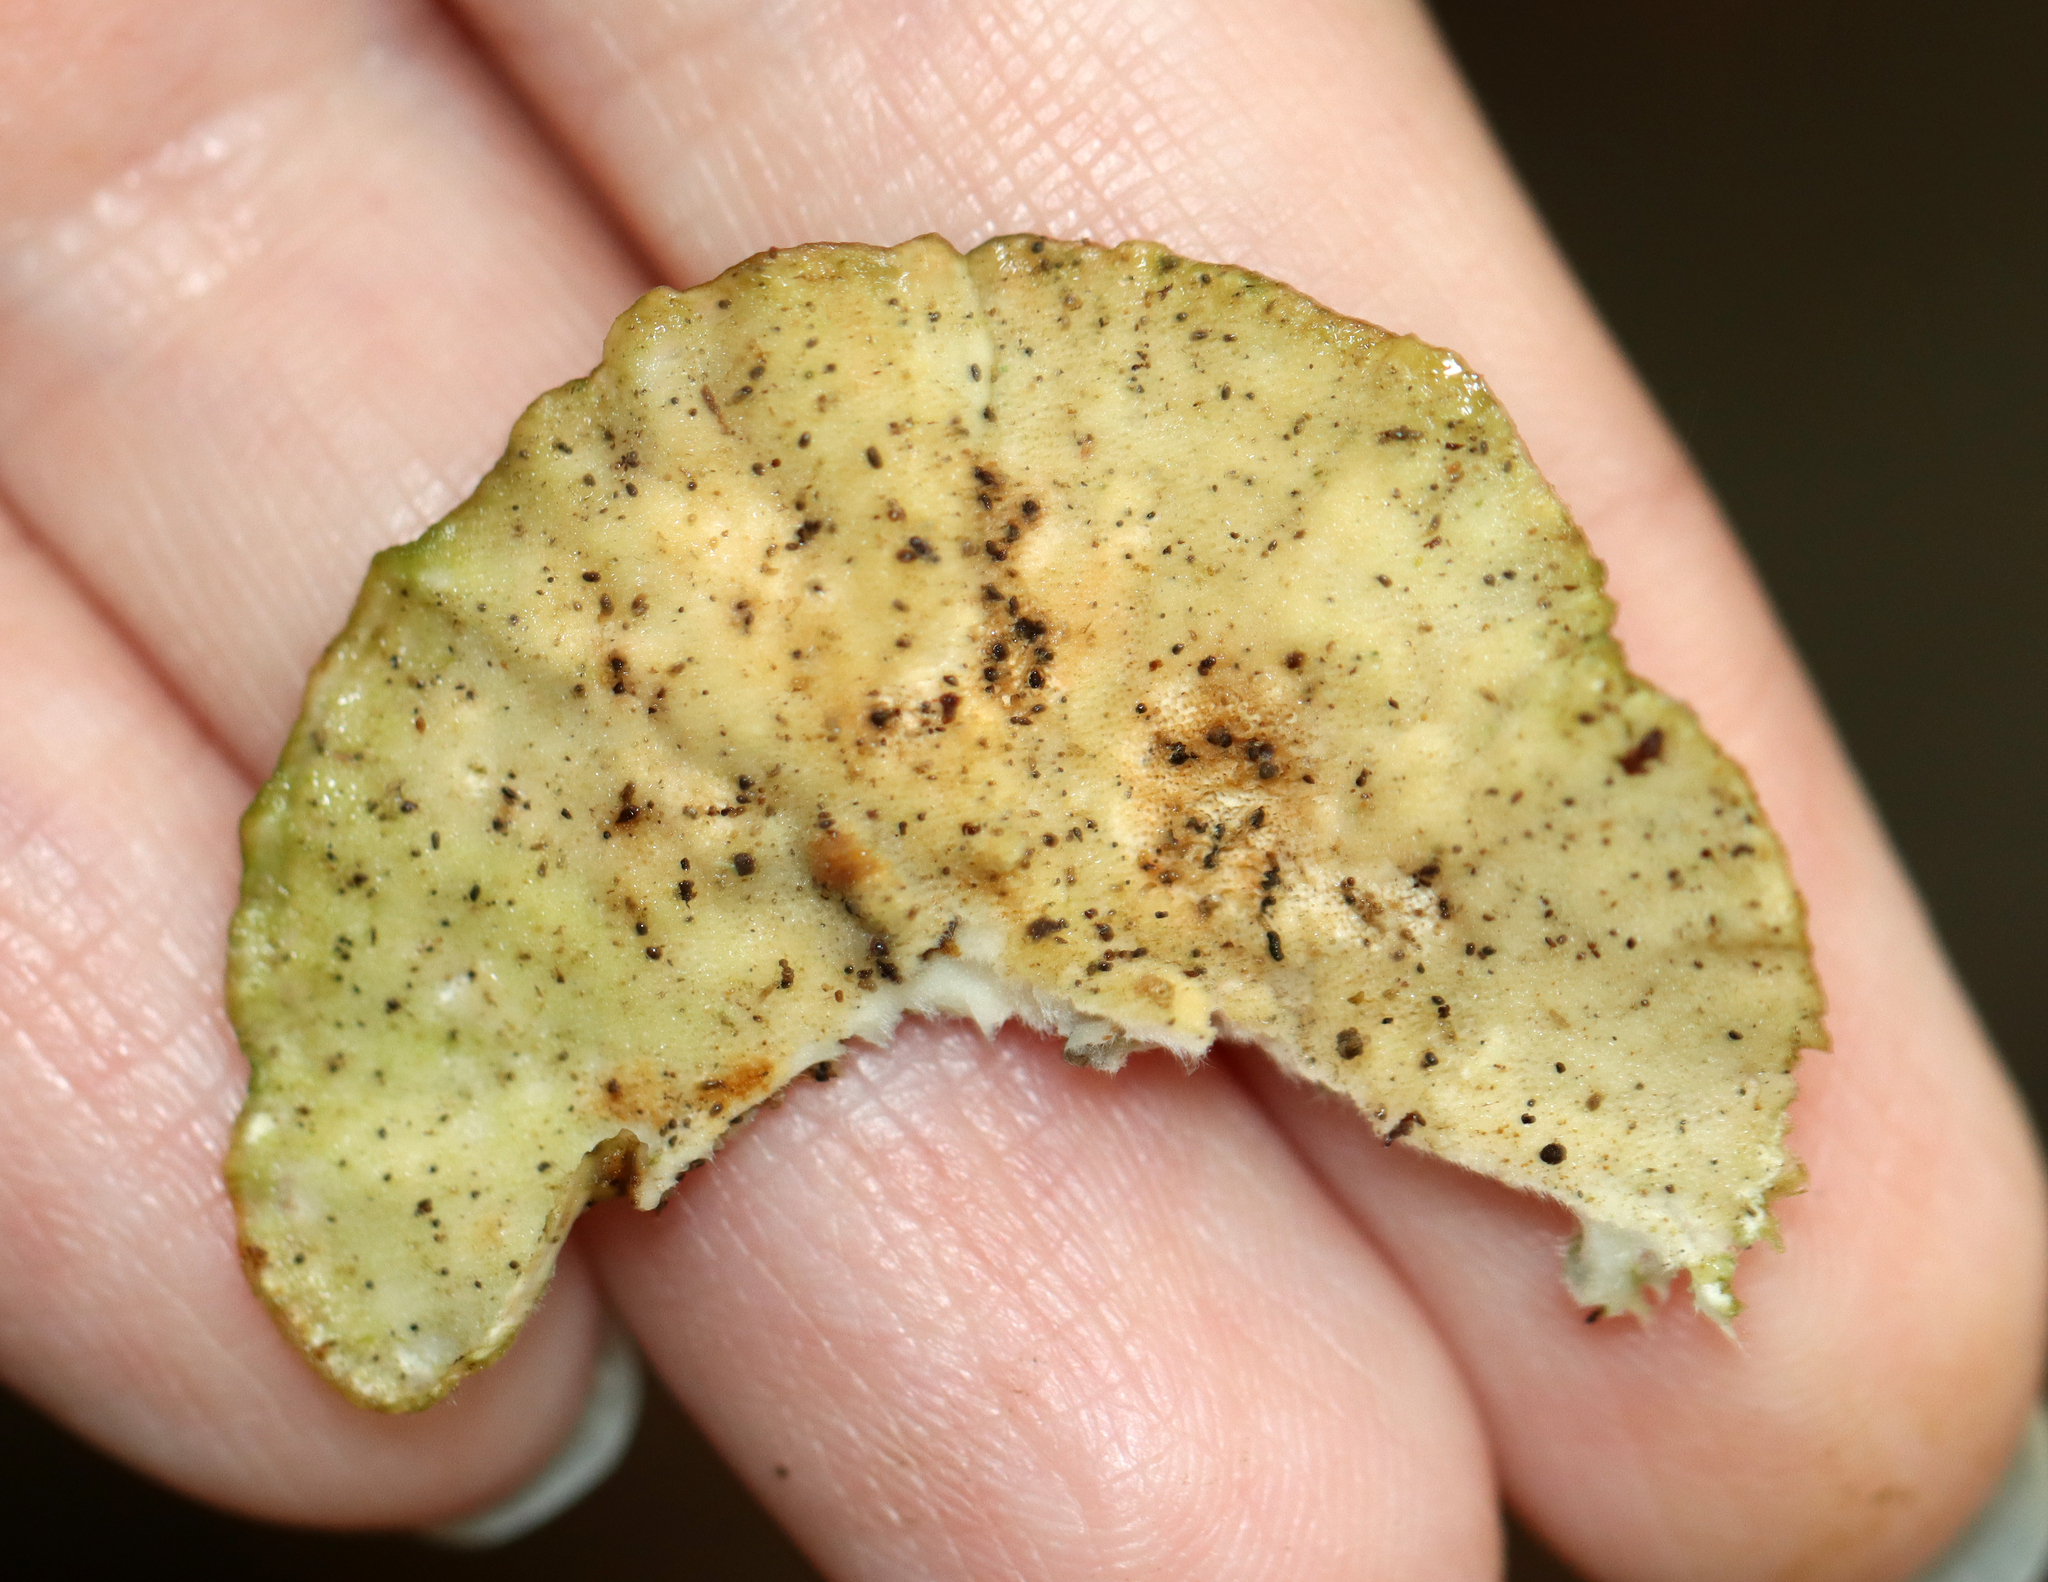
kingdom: Fungi
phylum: Basidiomycota
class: Agaricomycetes
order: Polyporales
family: Polyporaceae
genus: Trametes
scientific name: Trametes versicolor
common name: Turkeytail
